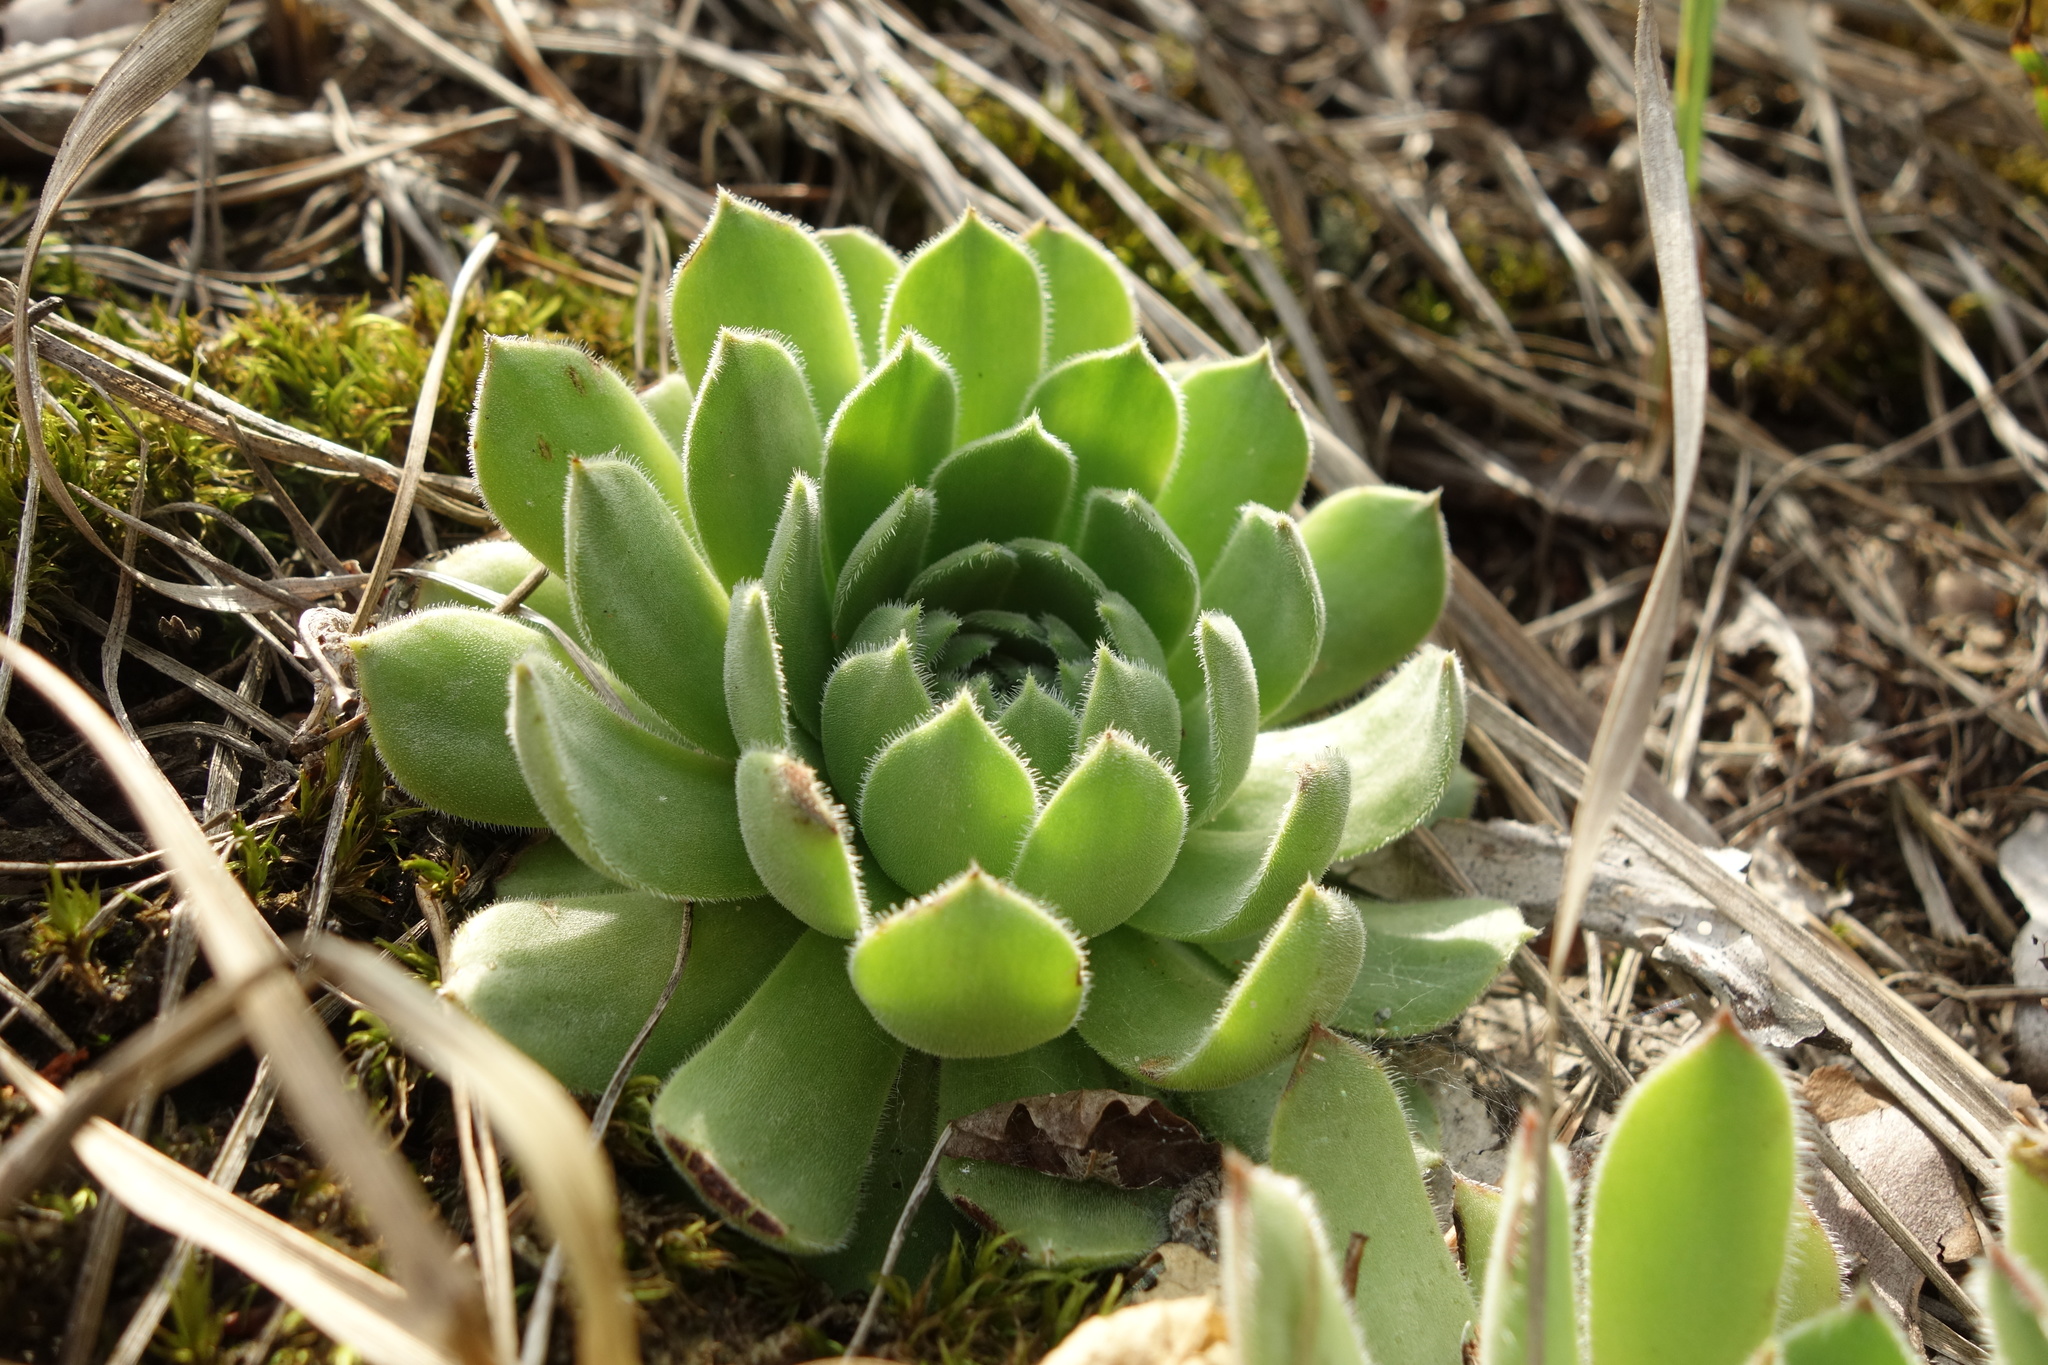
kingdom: Plantae
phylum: Tracheophyta
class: Magnoliopsida
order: Saxifragales
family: Crassulaceae
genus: Sempervivum
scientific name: Sempervivum ruthenicum
